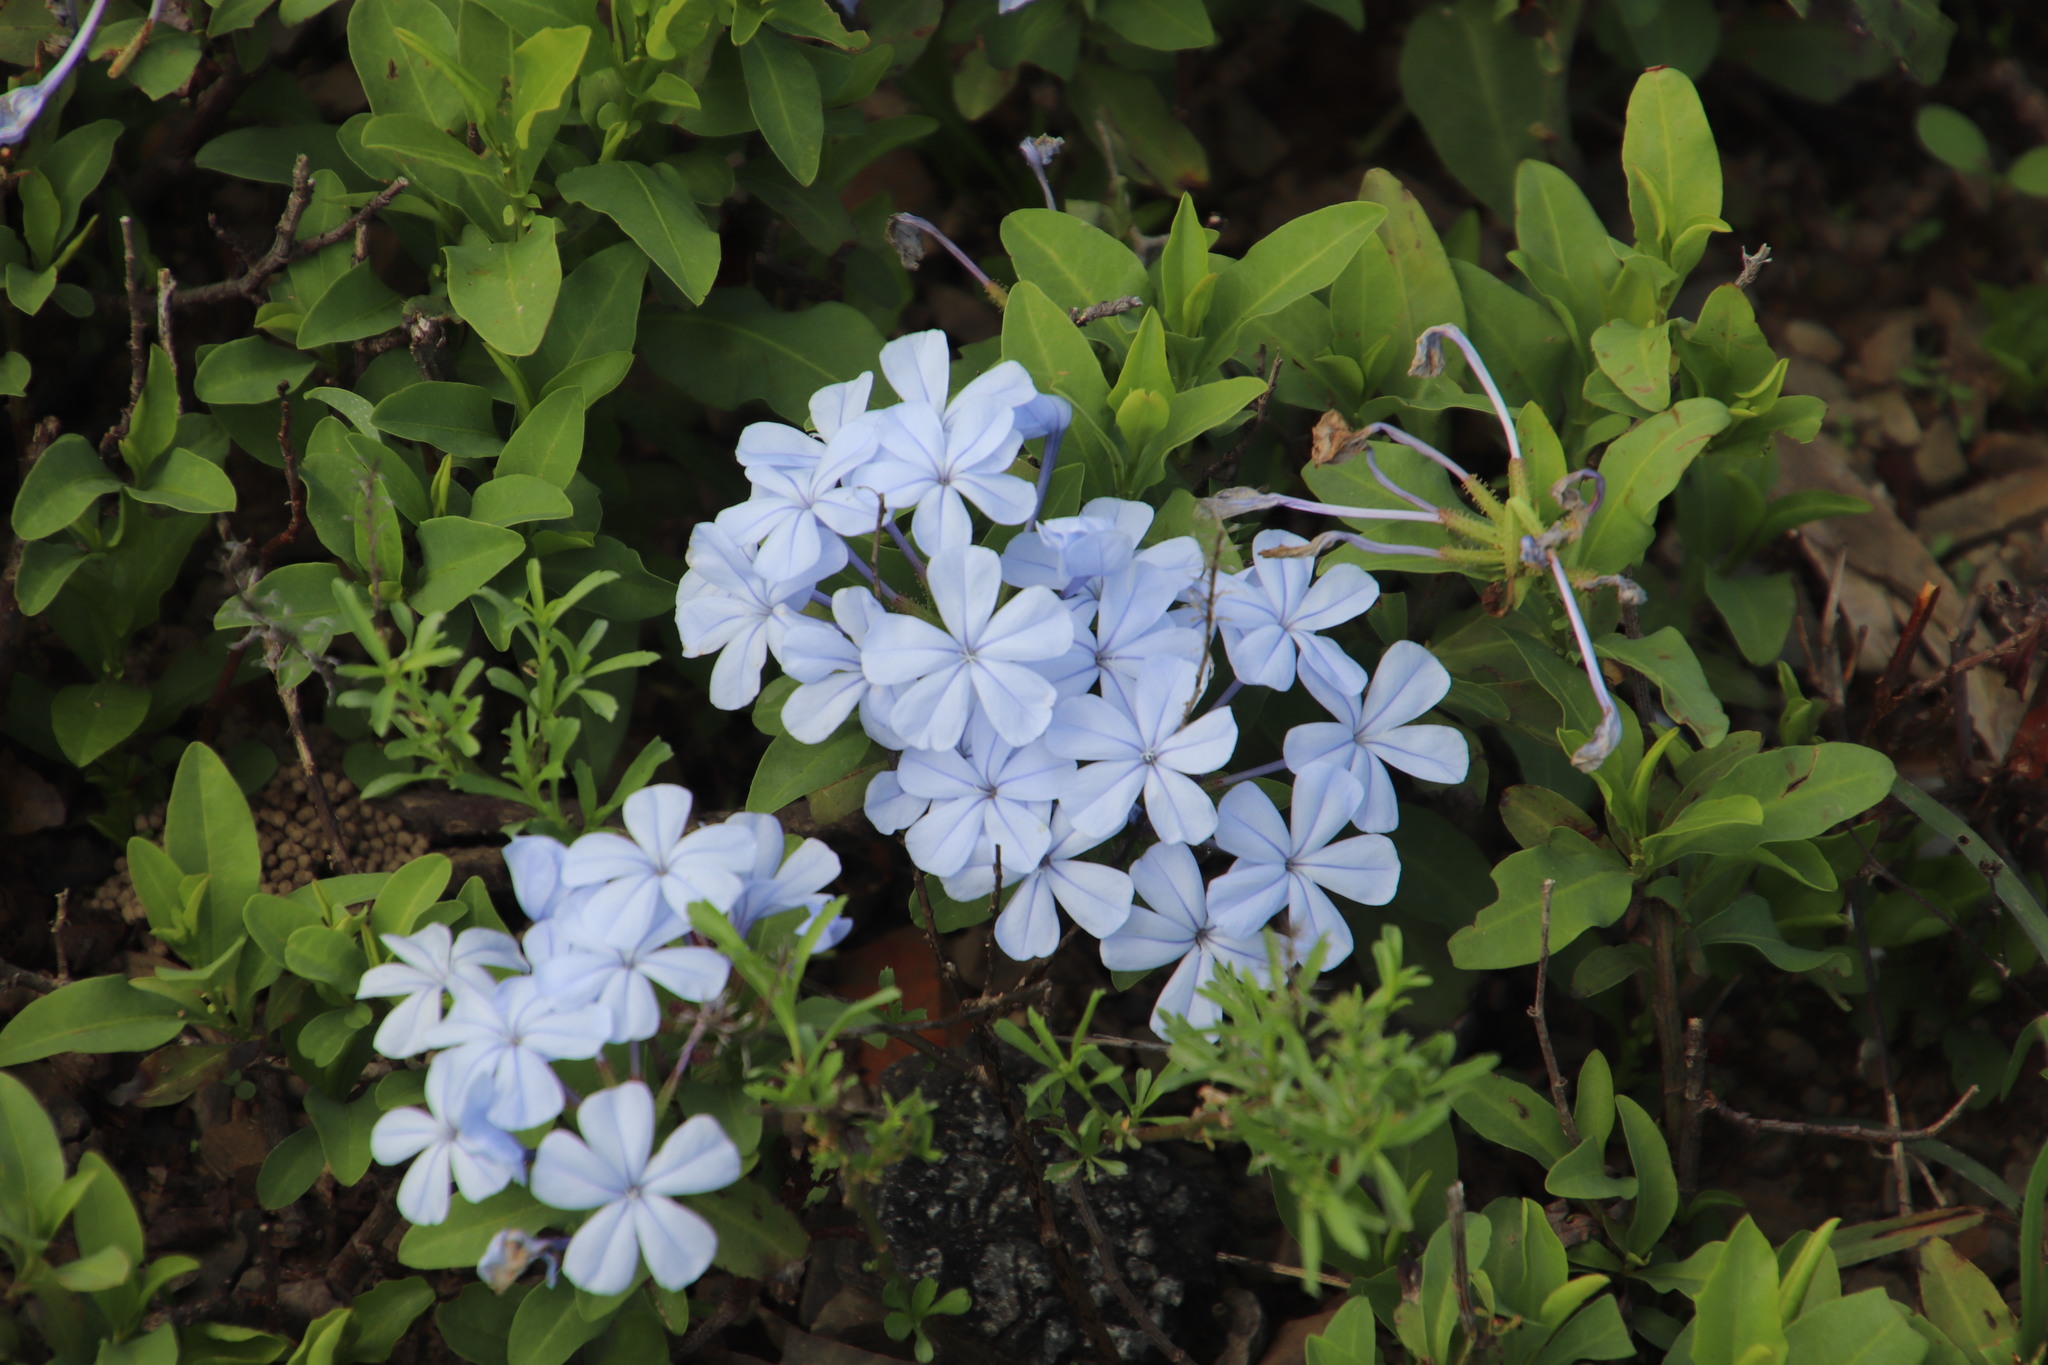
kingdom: Plantae
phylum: Tracheophyta
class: Magnoliopsida
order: Caryophyllales
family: Plumbaginaceae
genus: Plumbago
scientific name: Plumbago auriculata
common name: Cape leadwort
